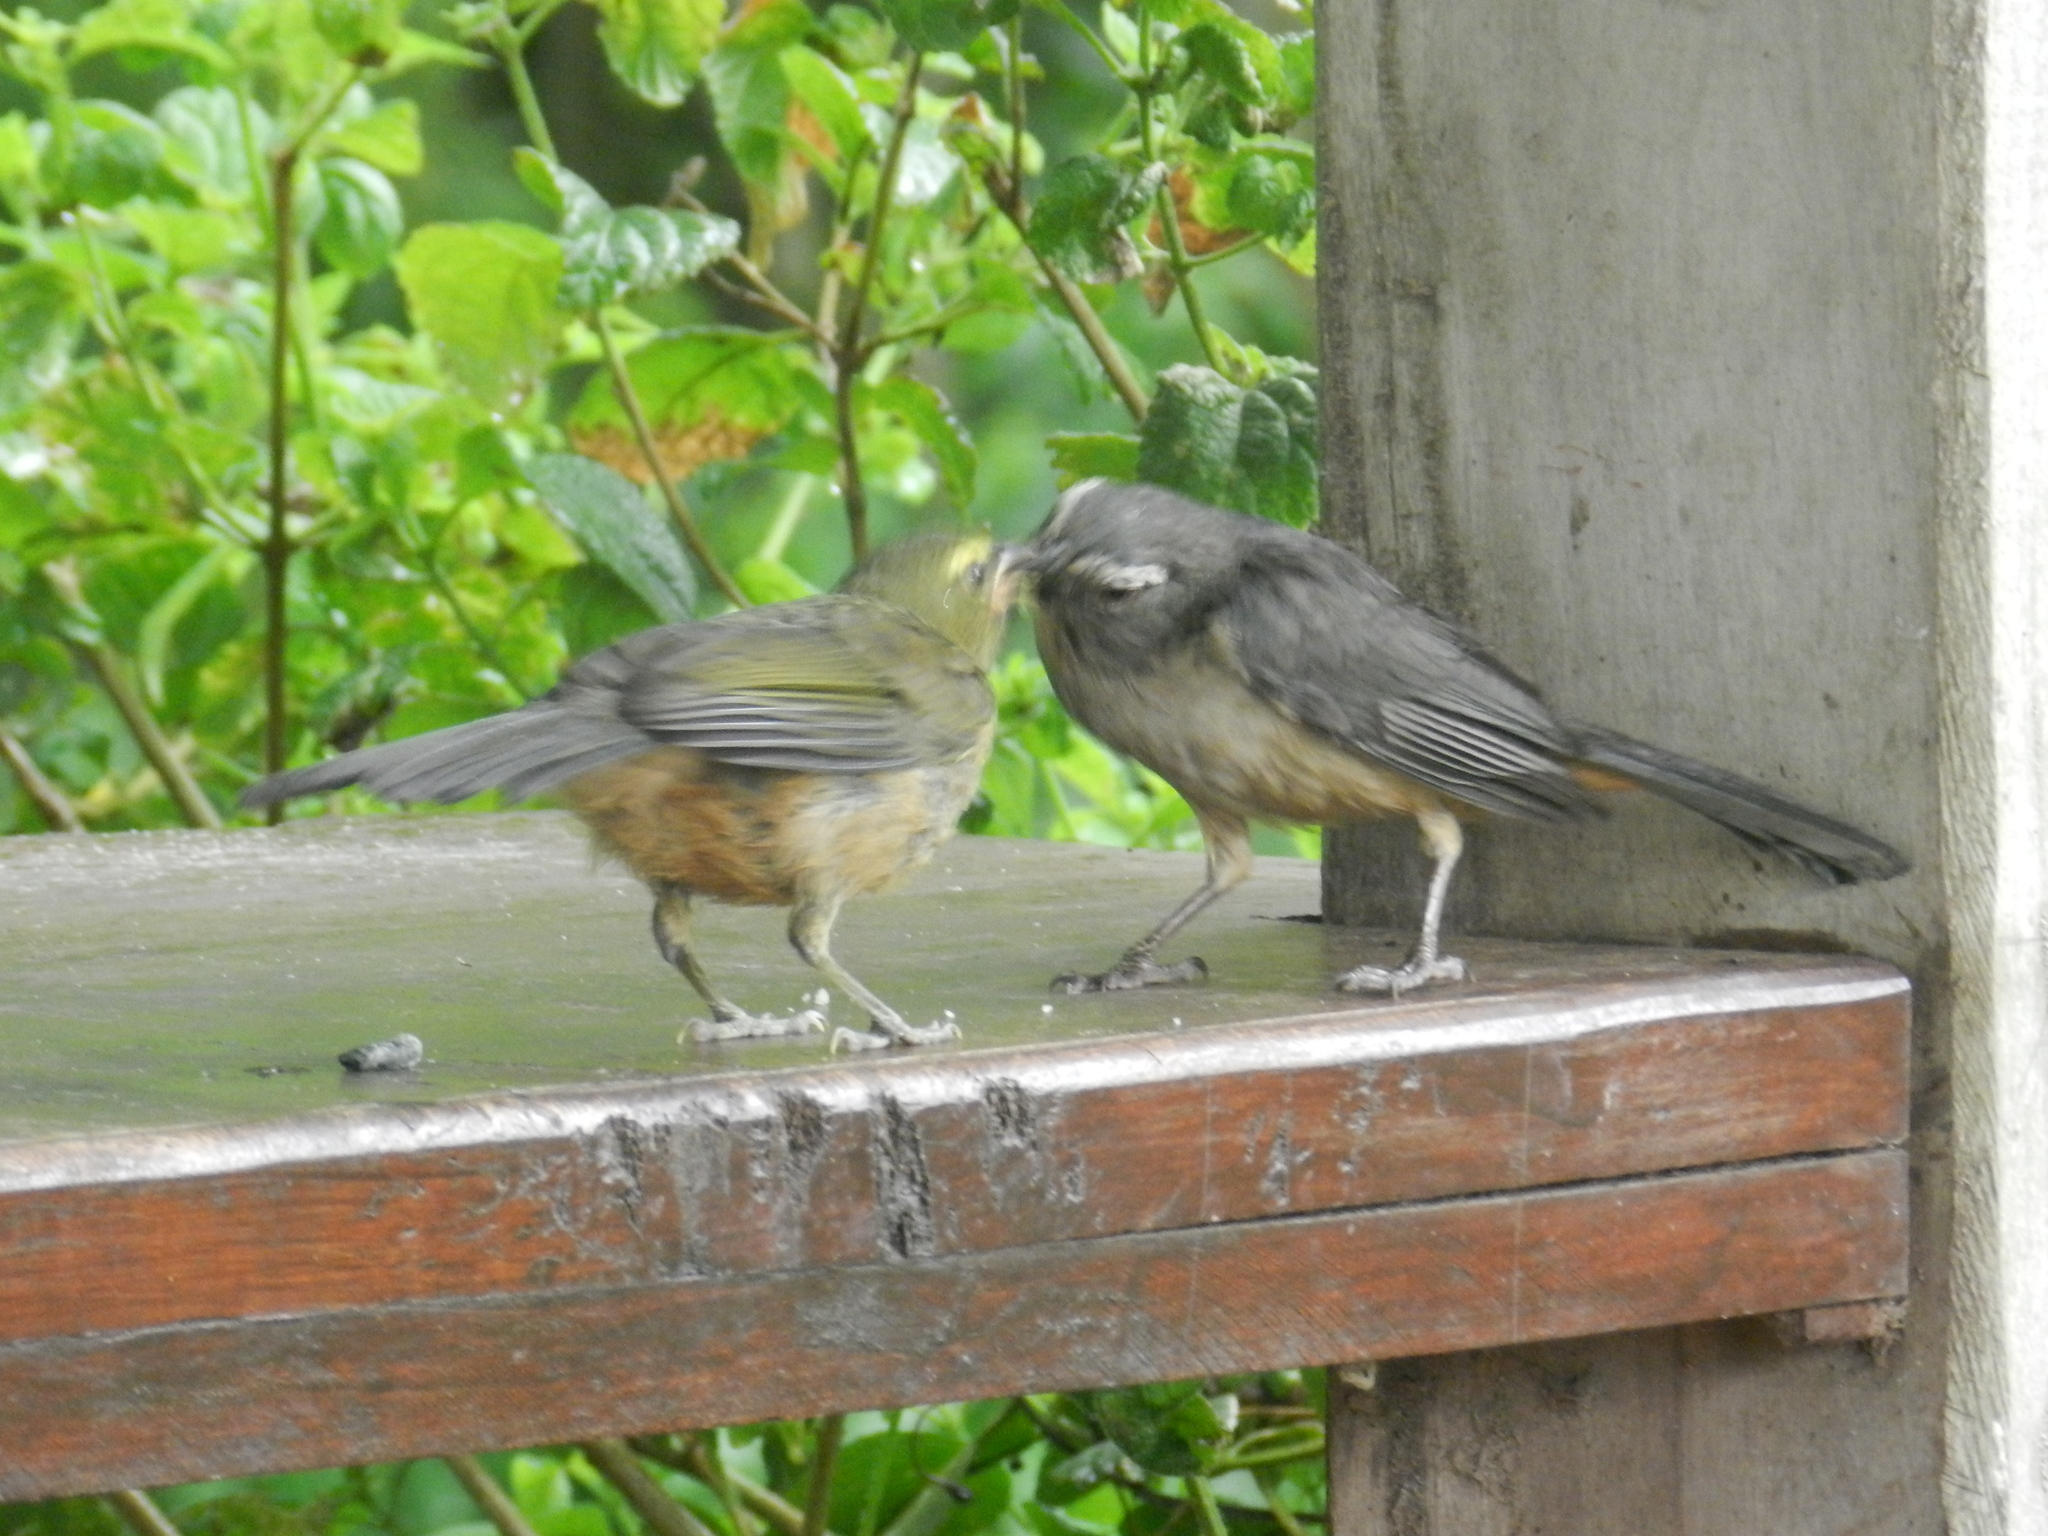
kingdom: Animalia
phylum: Chordata
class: Aves
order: Passeriformes
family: Thraupidae
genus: Saltator
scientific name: Saltator coerulescens
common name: Grayish saltator
